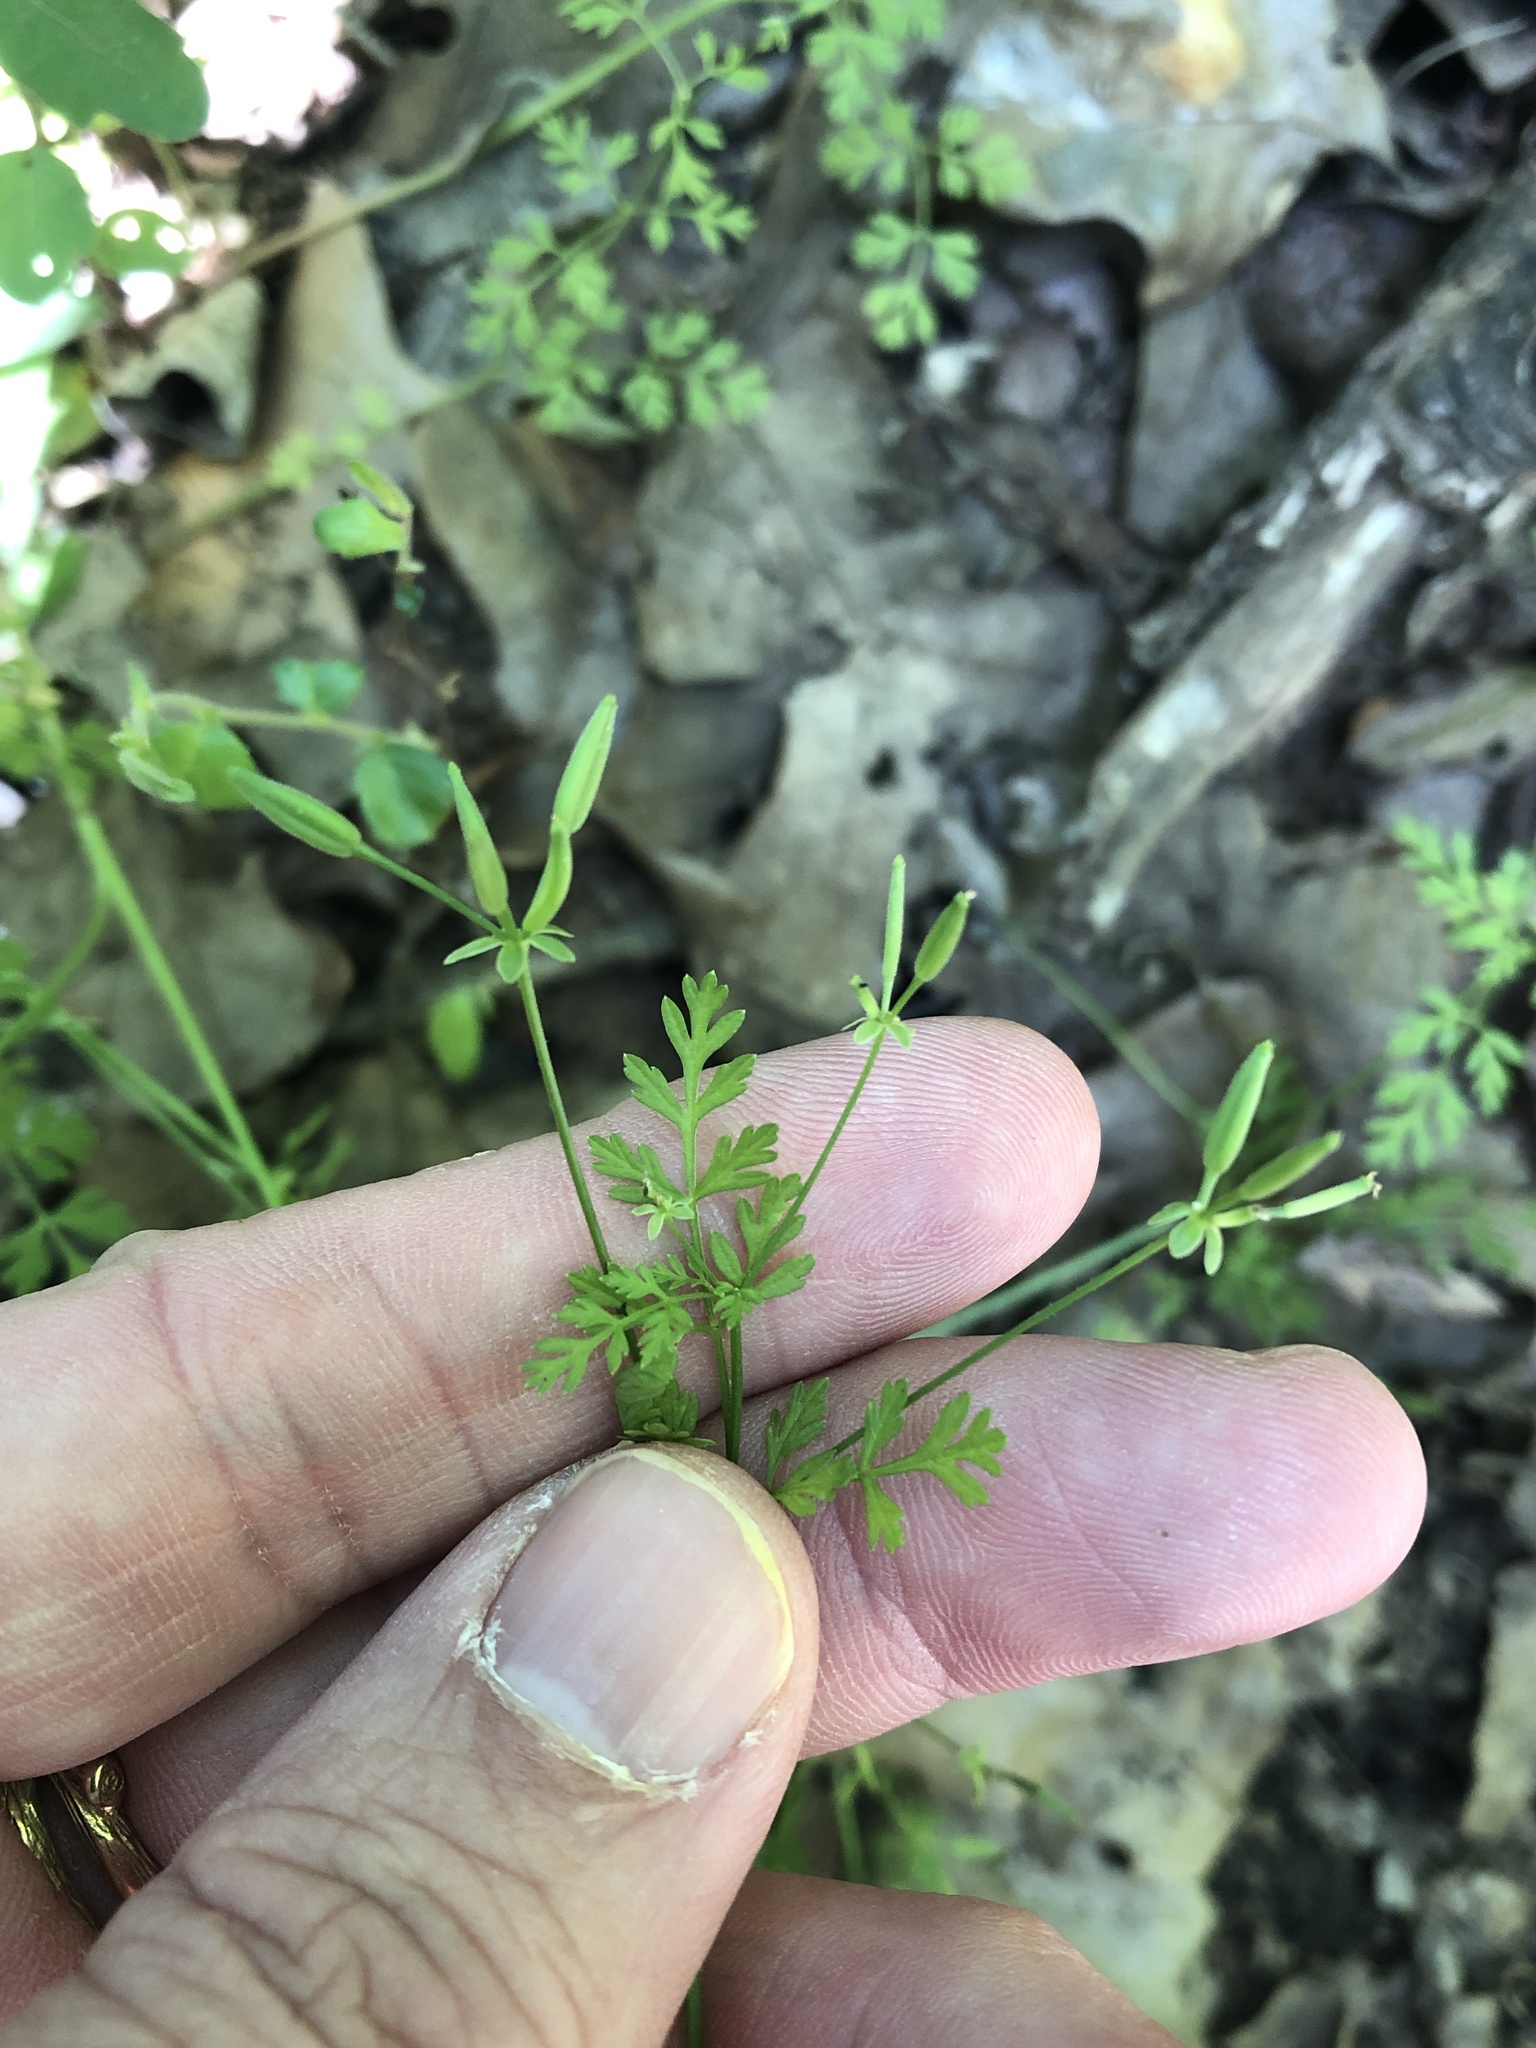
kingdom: Plantae
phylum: Tracheophyta
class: Magnoliopsida
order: Apiales
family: Apiaceae
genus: Chaerophyllum
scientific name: Chaerophyllum tainturieri
